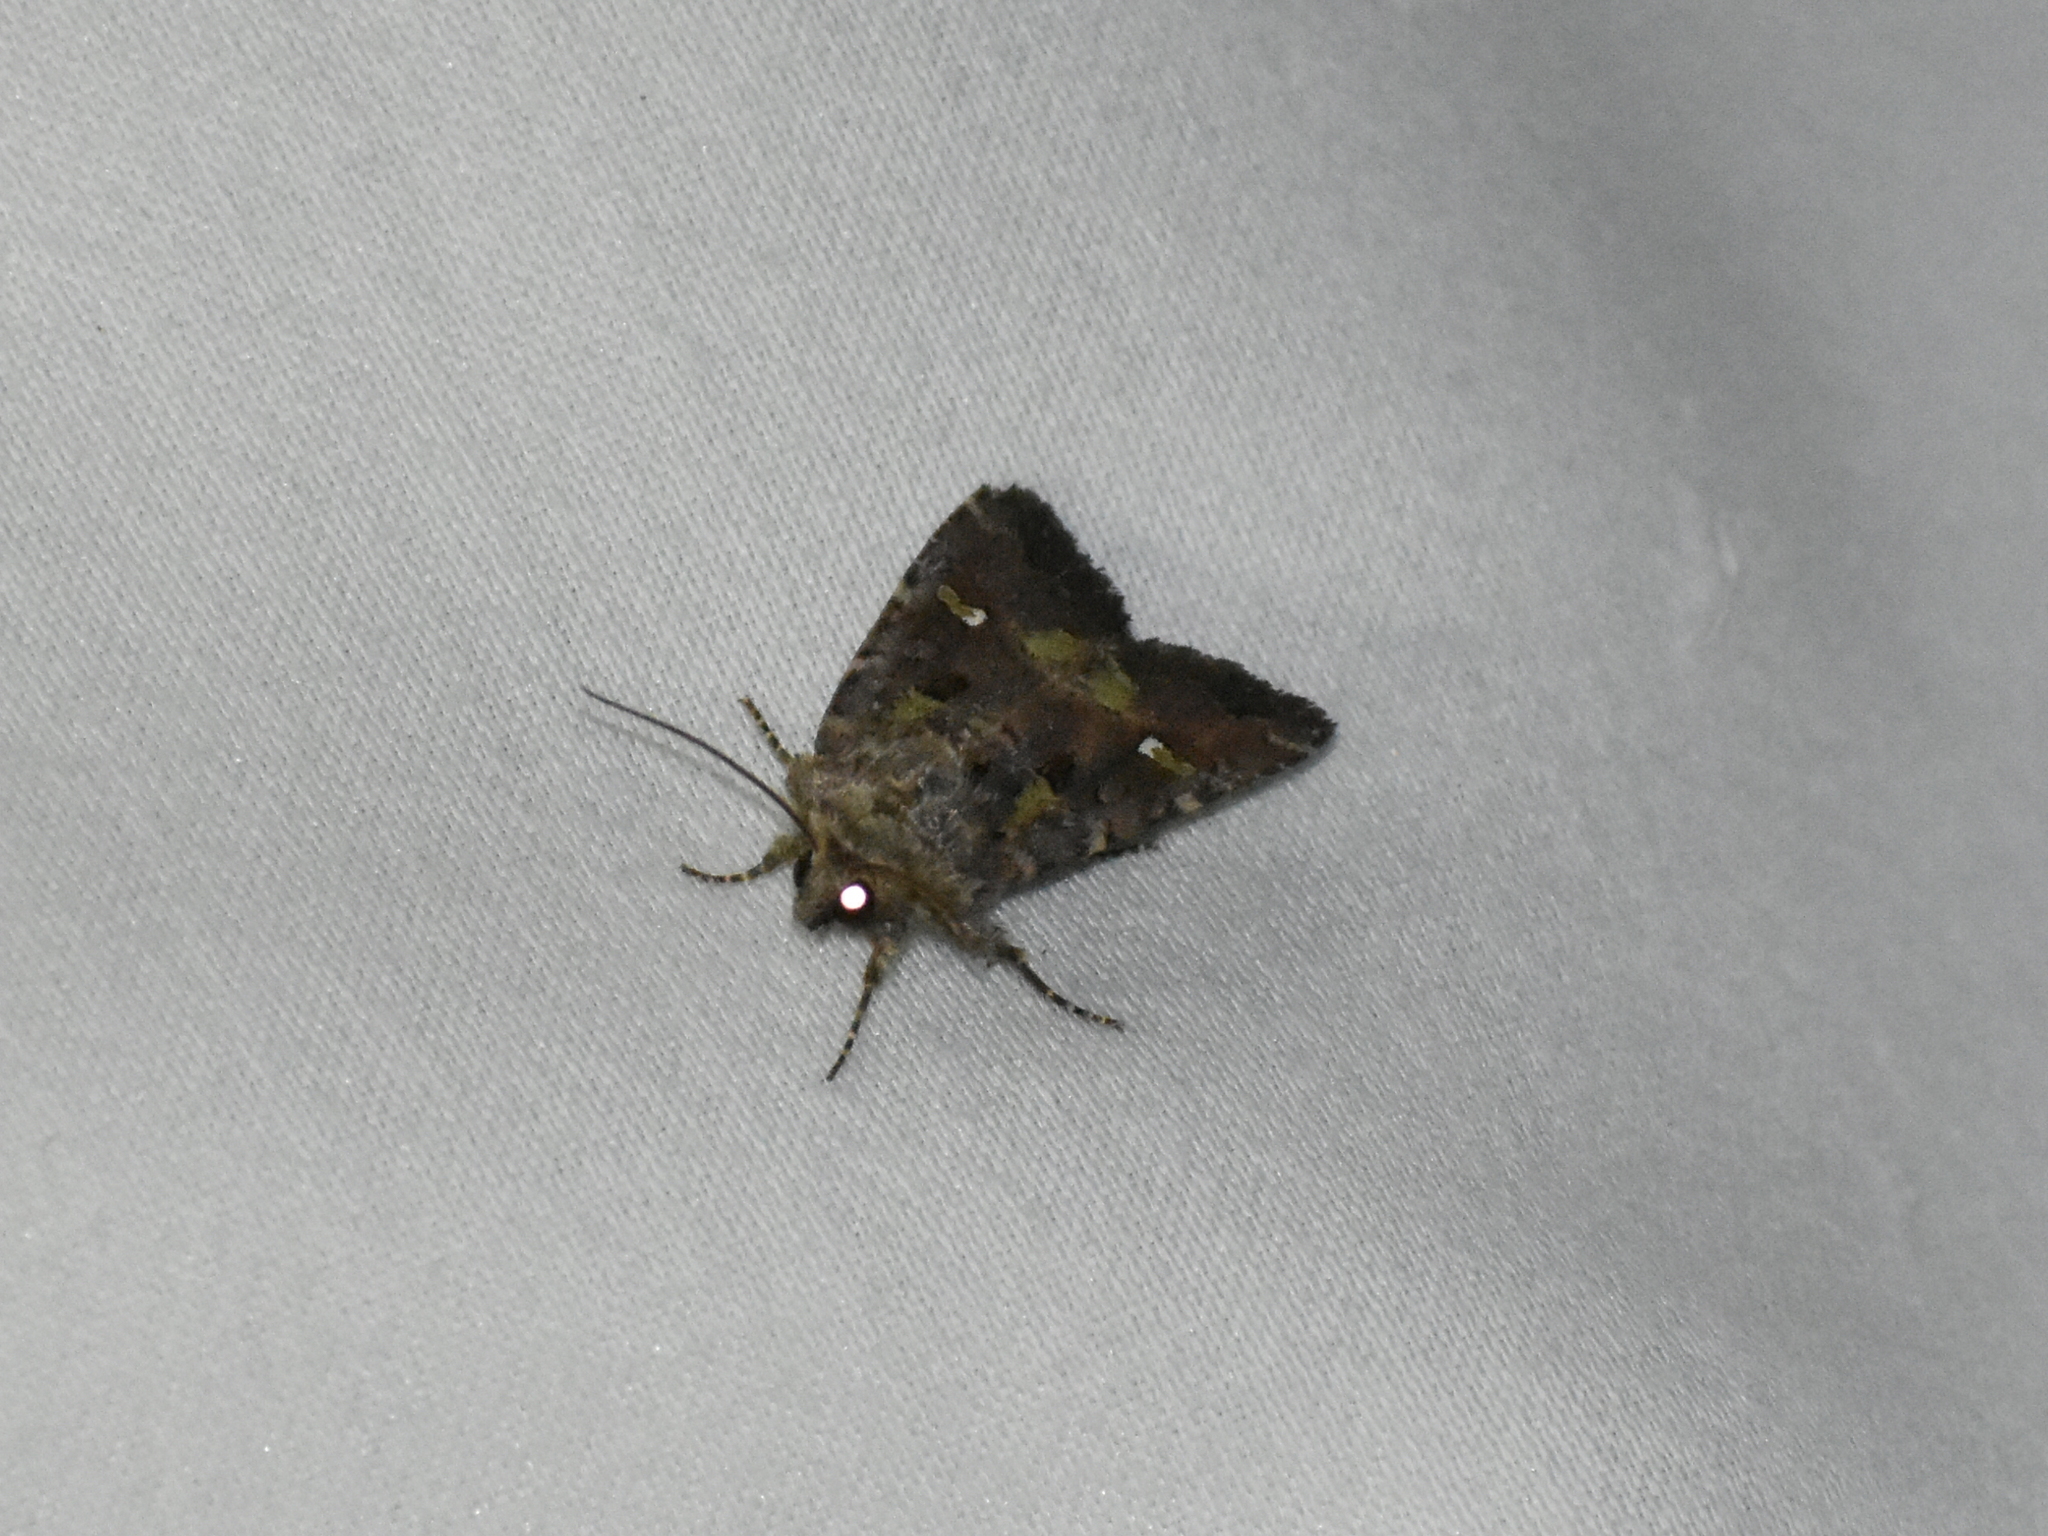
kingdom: Animalia
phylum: Arthropoda
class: Insecta
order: Lepidoptera
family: Noctuidae
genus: Lacinipolia
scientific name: Lacinipolia renigera
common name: Kidney-spotted minor
